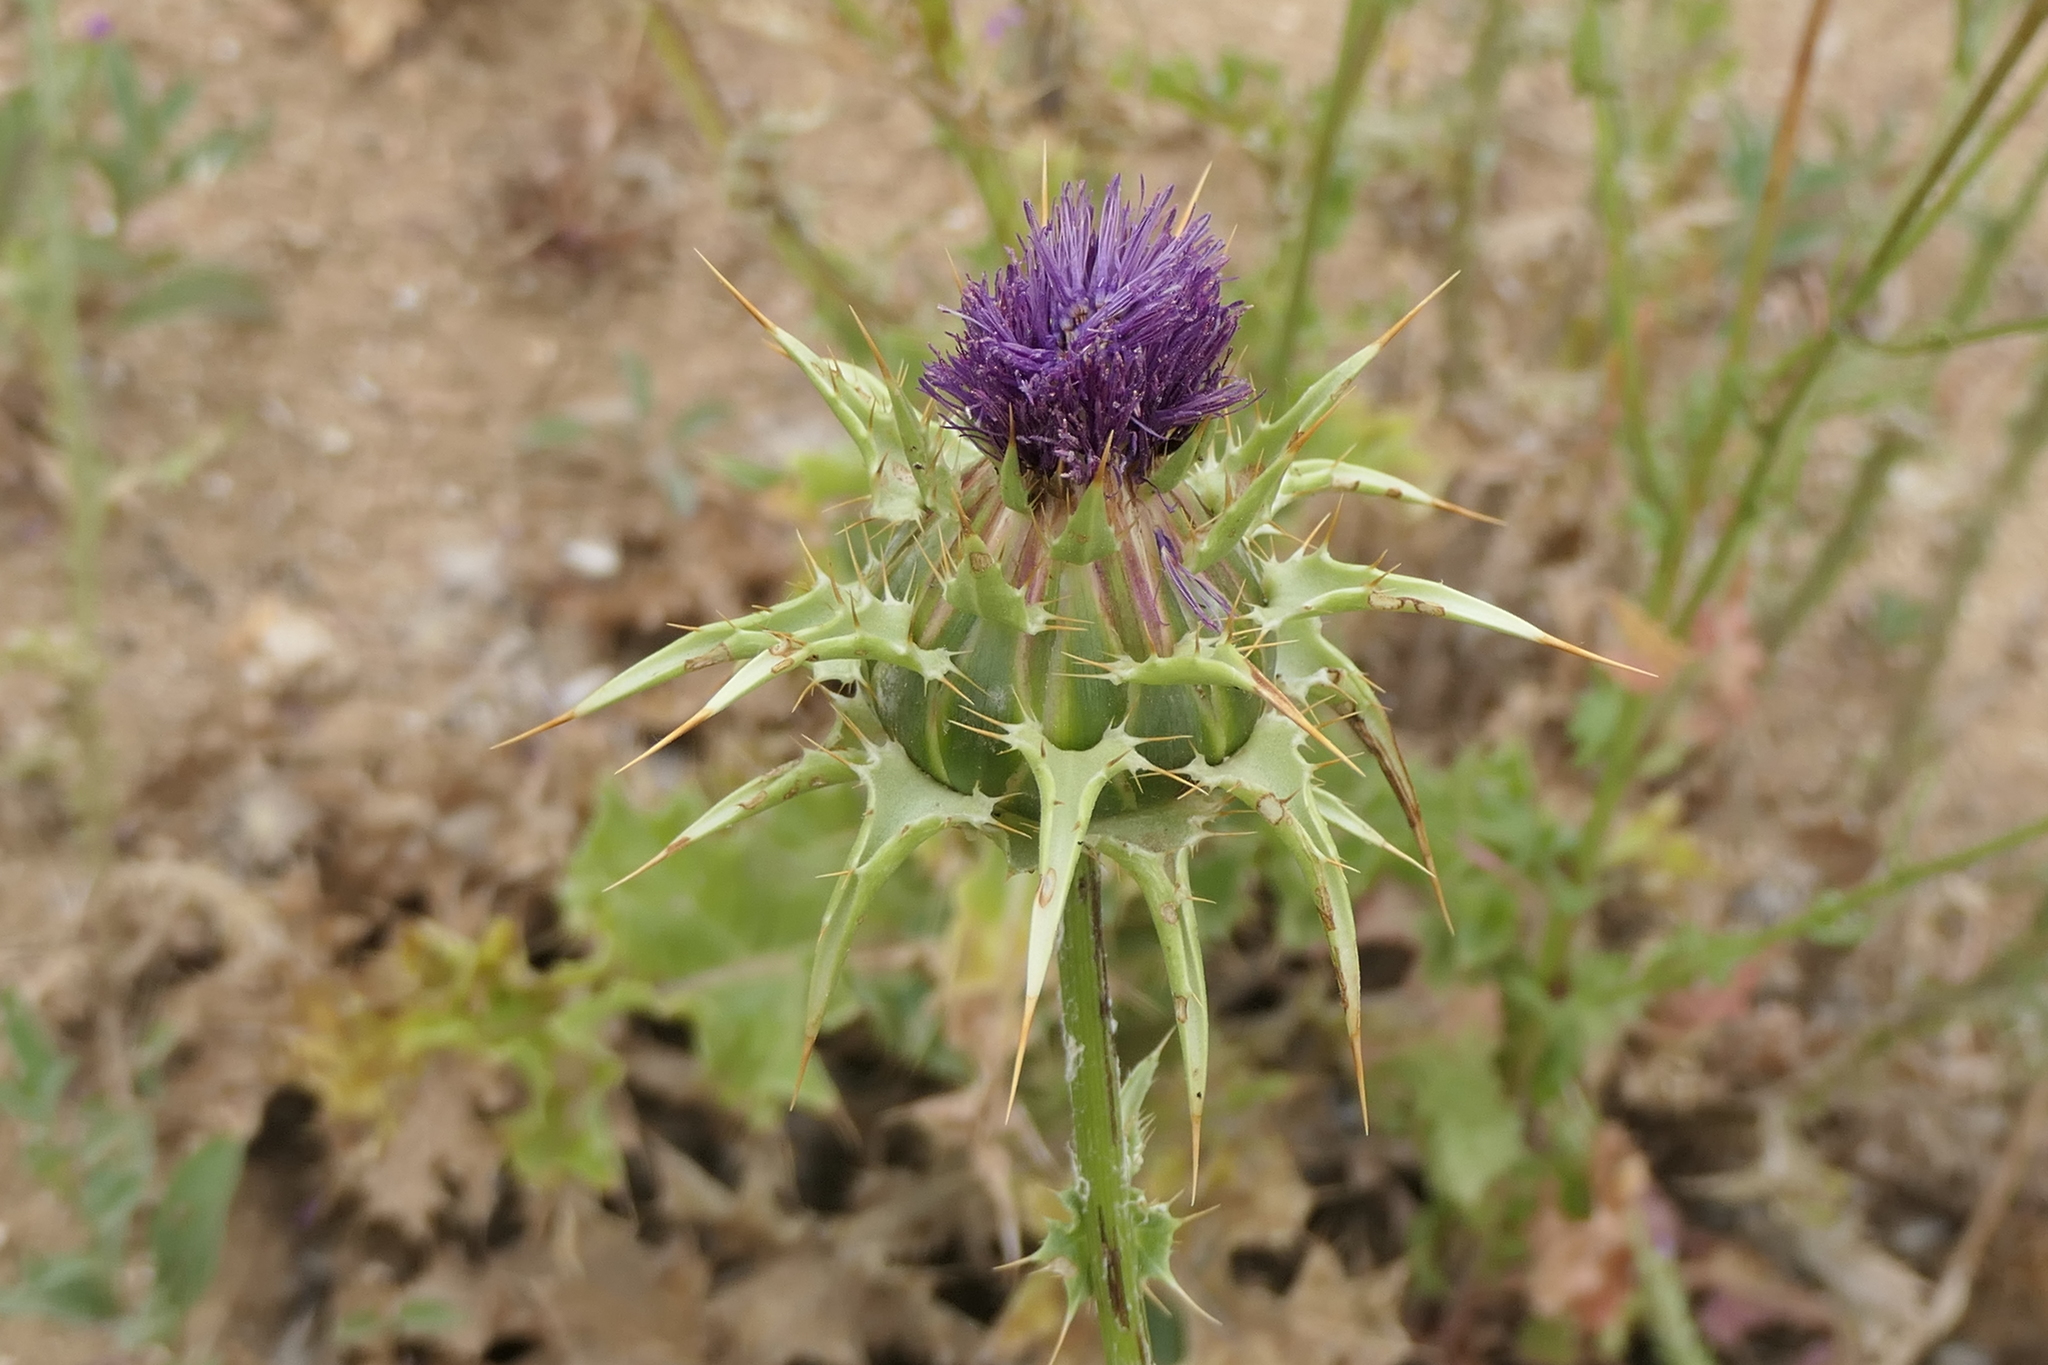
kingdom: Plantae
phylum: Tracheophyta
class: Magnoliopsida
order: Asterales
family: Asteraceae
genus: Silybum
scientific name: Silybum marianum
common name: Milk thistle
